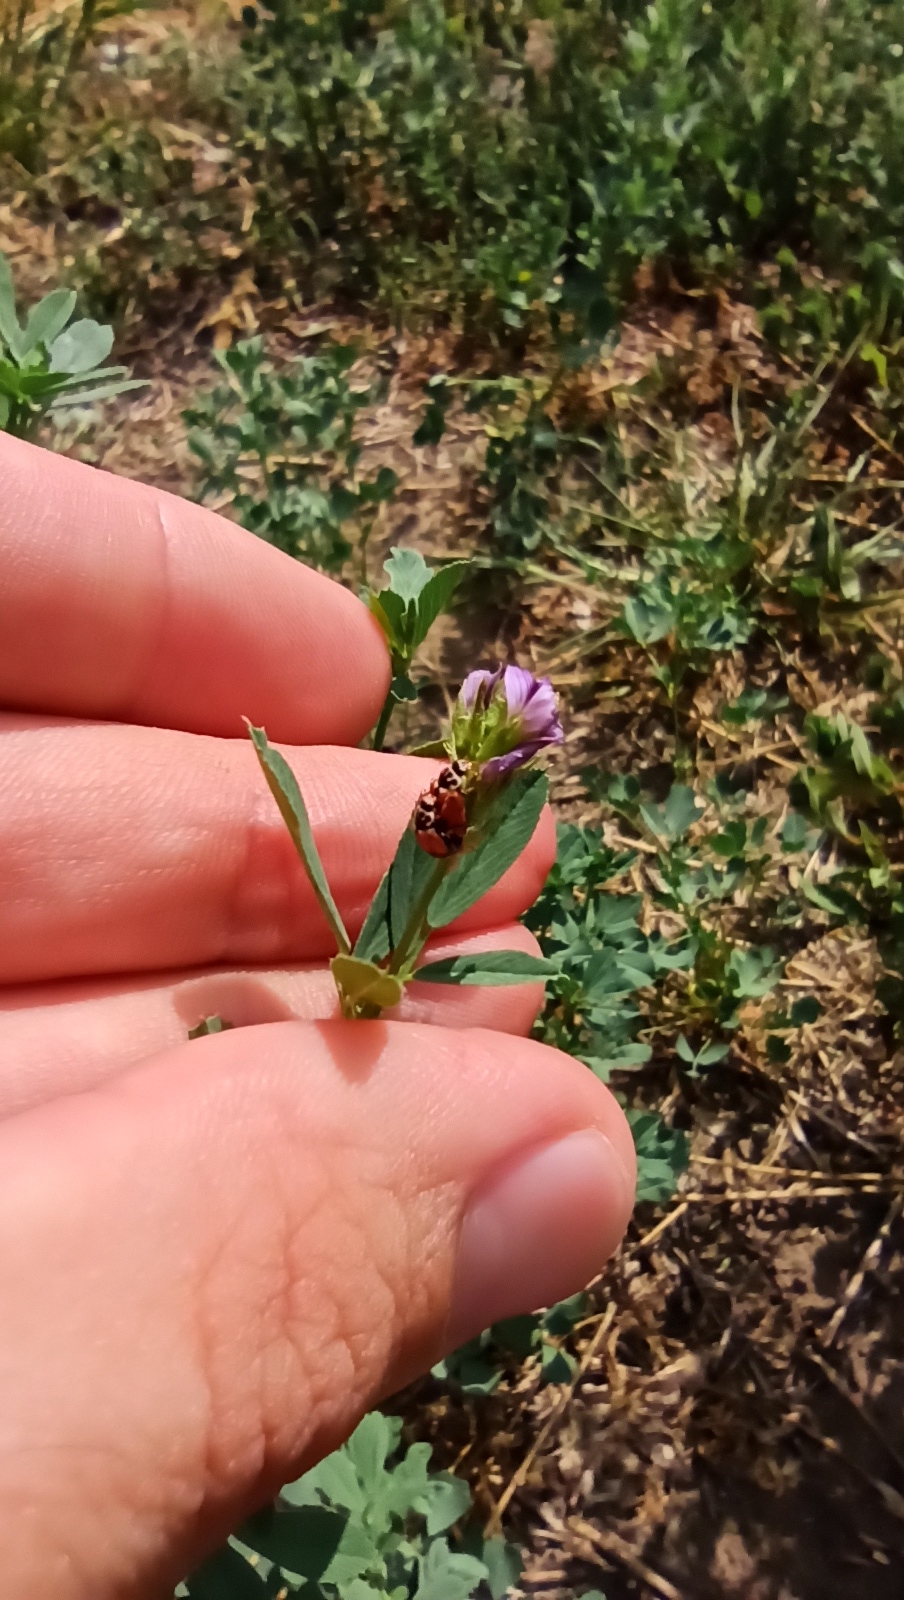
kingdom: Animalia
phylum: Arthropoda
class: Insecta
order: Coleoptera
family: Coccinellidae
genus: Hippodamia
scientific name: Hippodamia variegata
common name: Ladybird beetle
